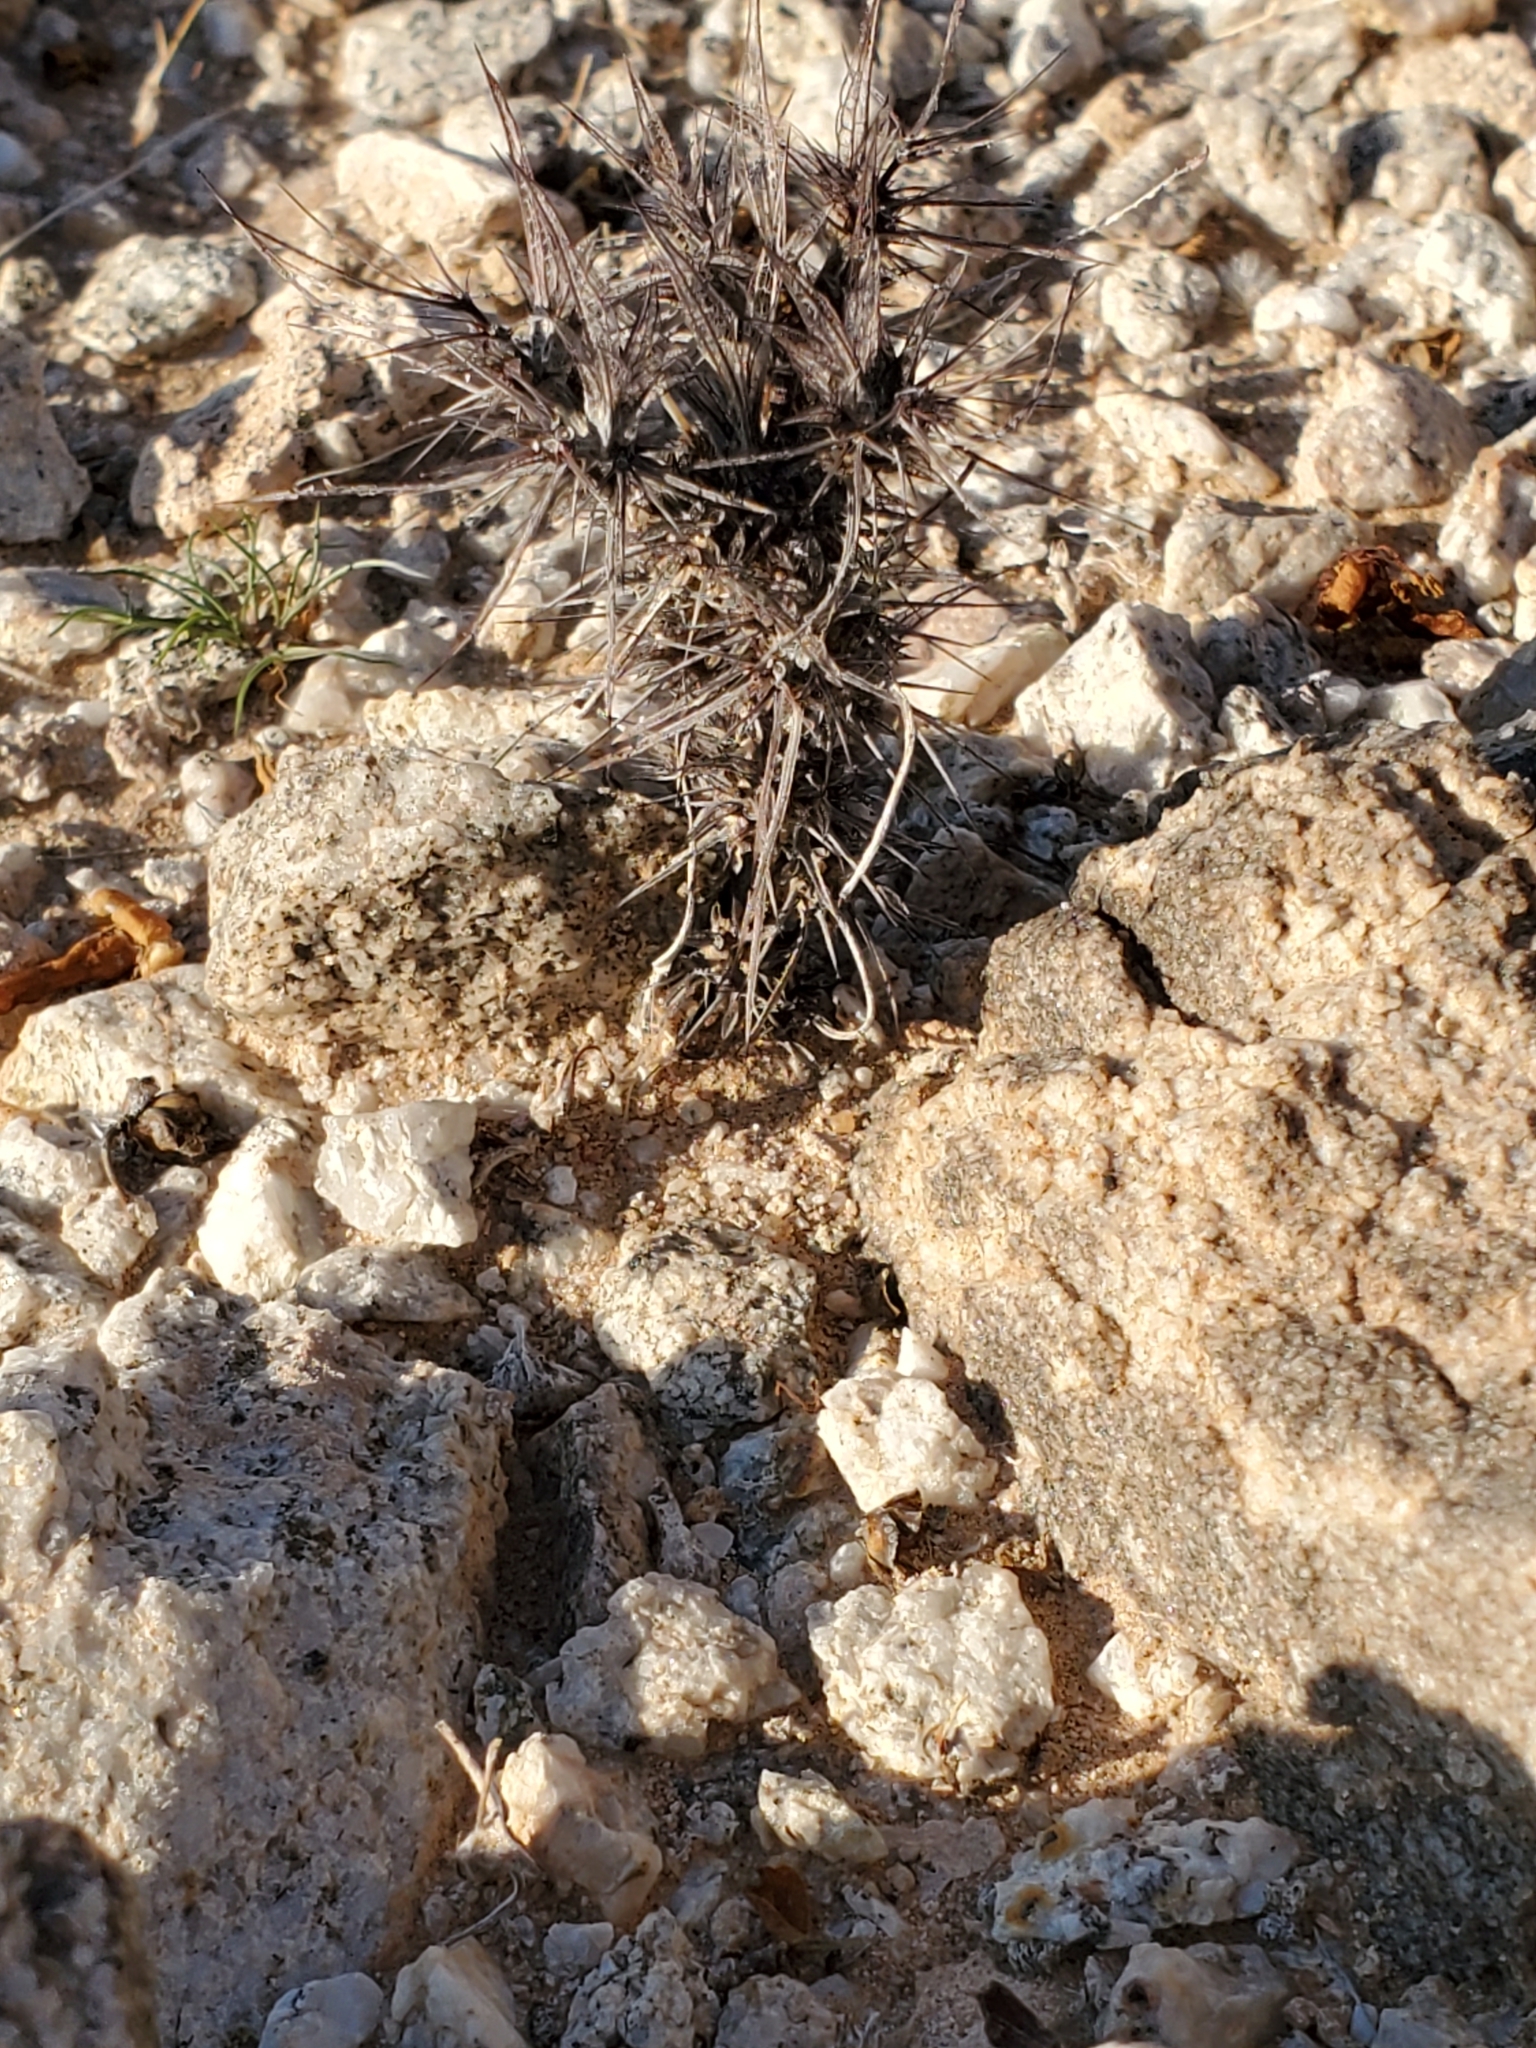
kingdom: Plantae
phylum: Tracheophyta
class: Magnoliopsida
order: Caryophyllales
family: Polygonaceae
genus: Chorizanthe
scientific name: Chorizanthe rigida
